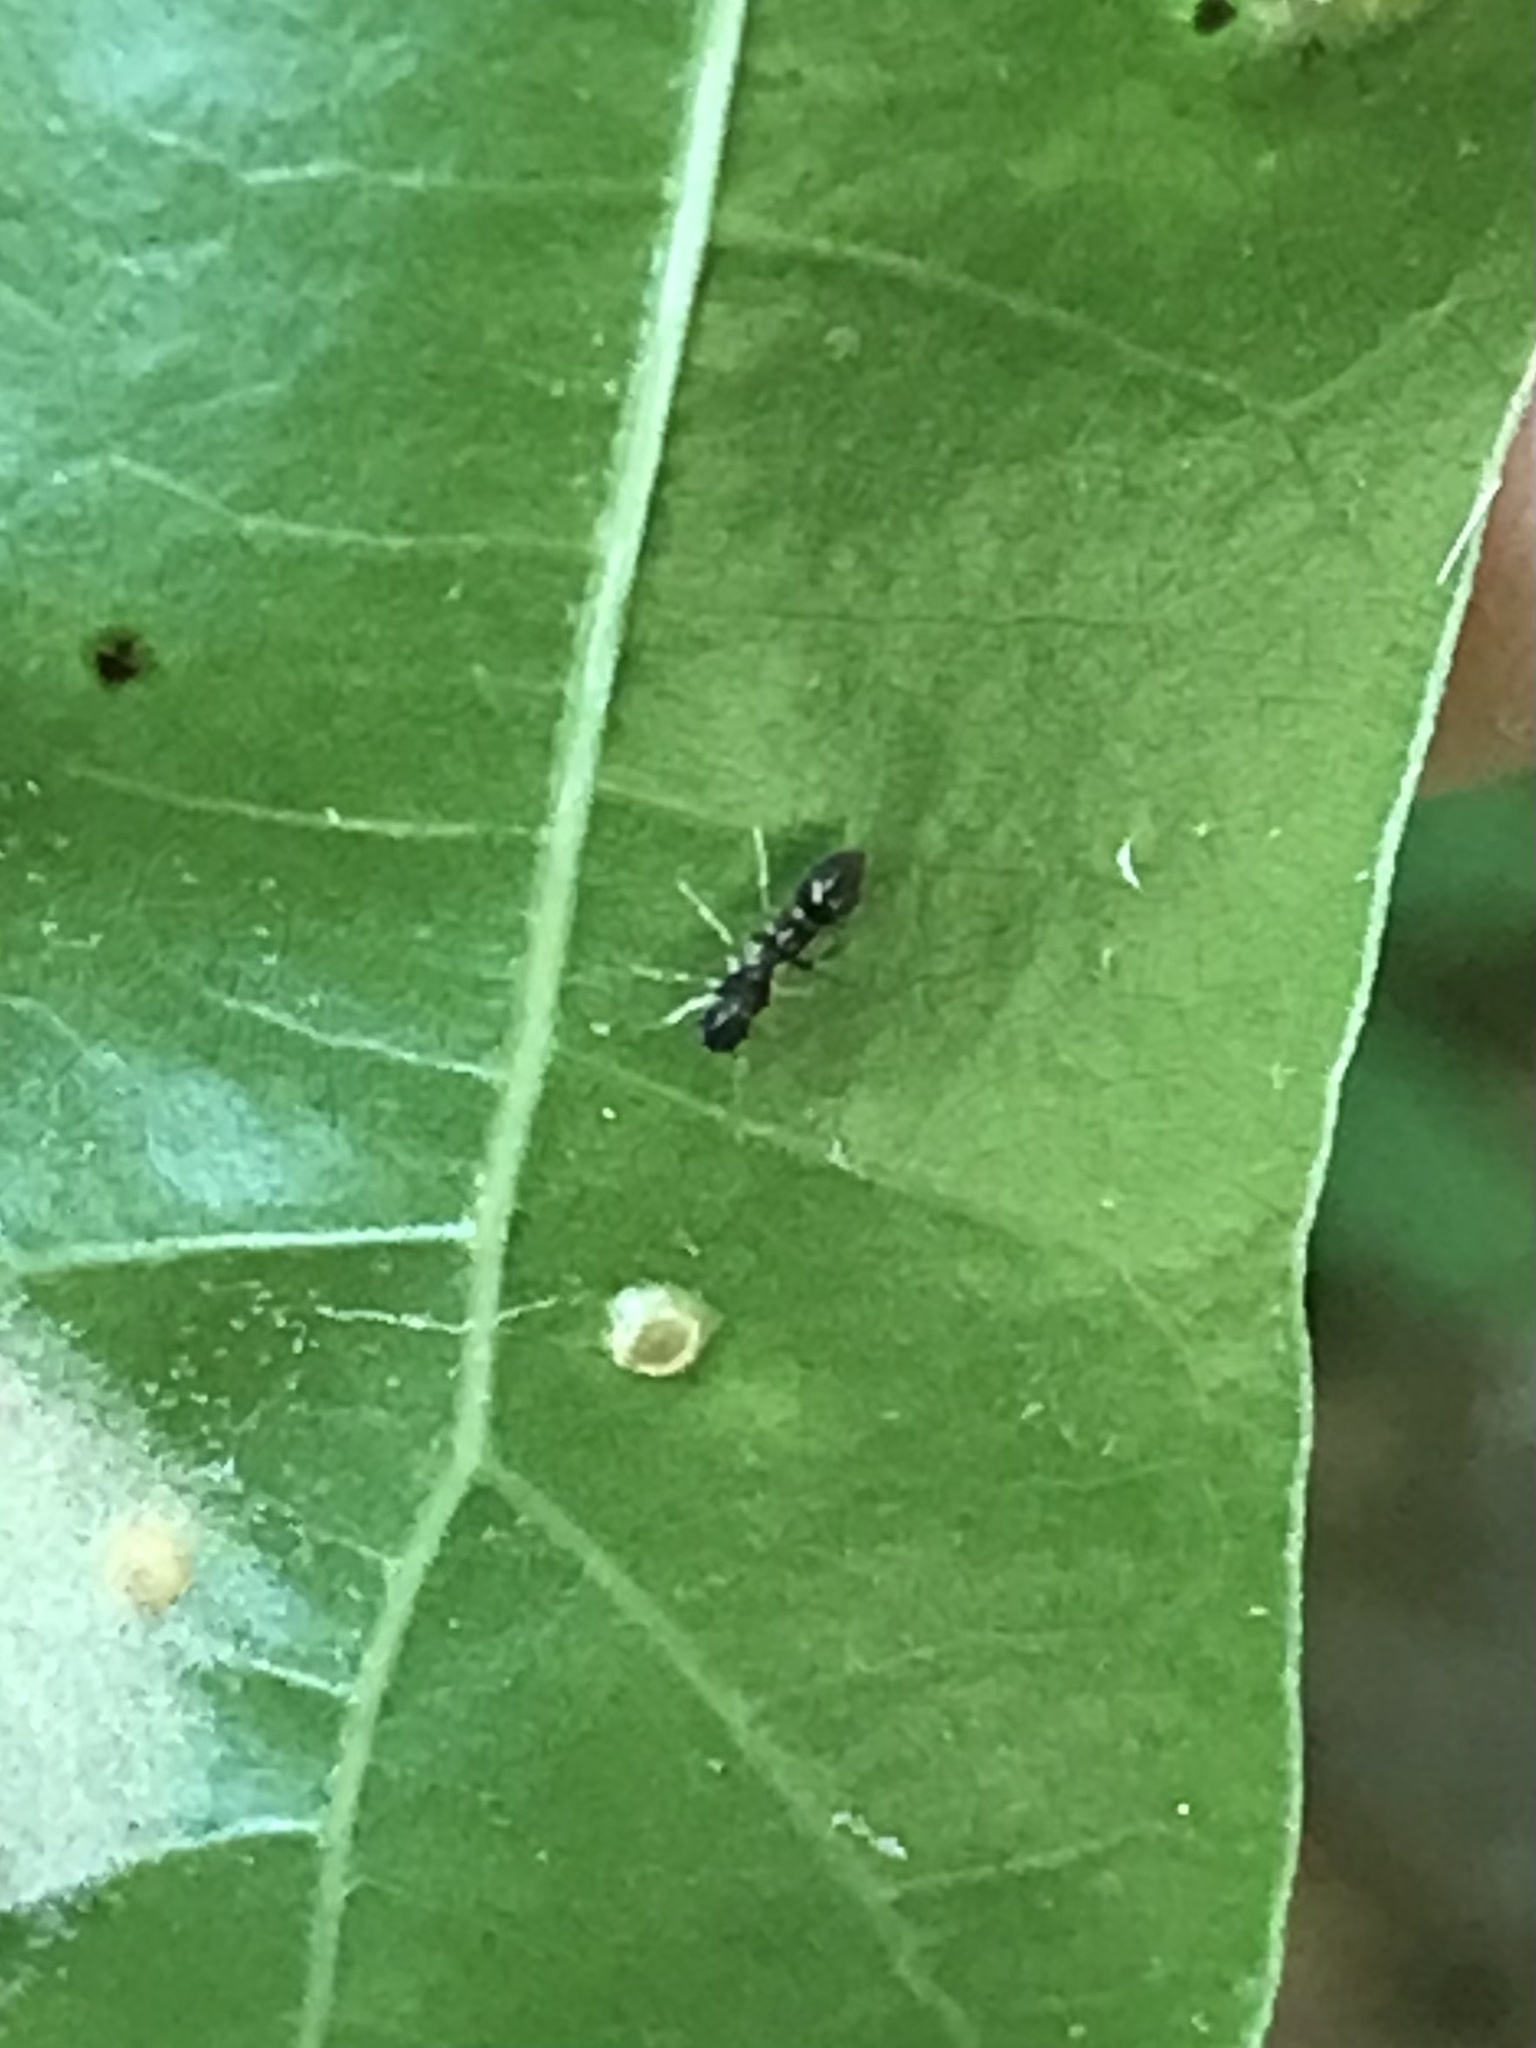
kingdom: Animalia
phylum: Arthropoda
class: Arachnida
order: Araneae
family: Salticidae
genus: Synemosyna
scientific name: Synemosyna formica
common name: Slender ant-mimic jumping spider
